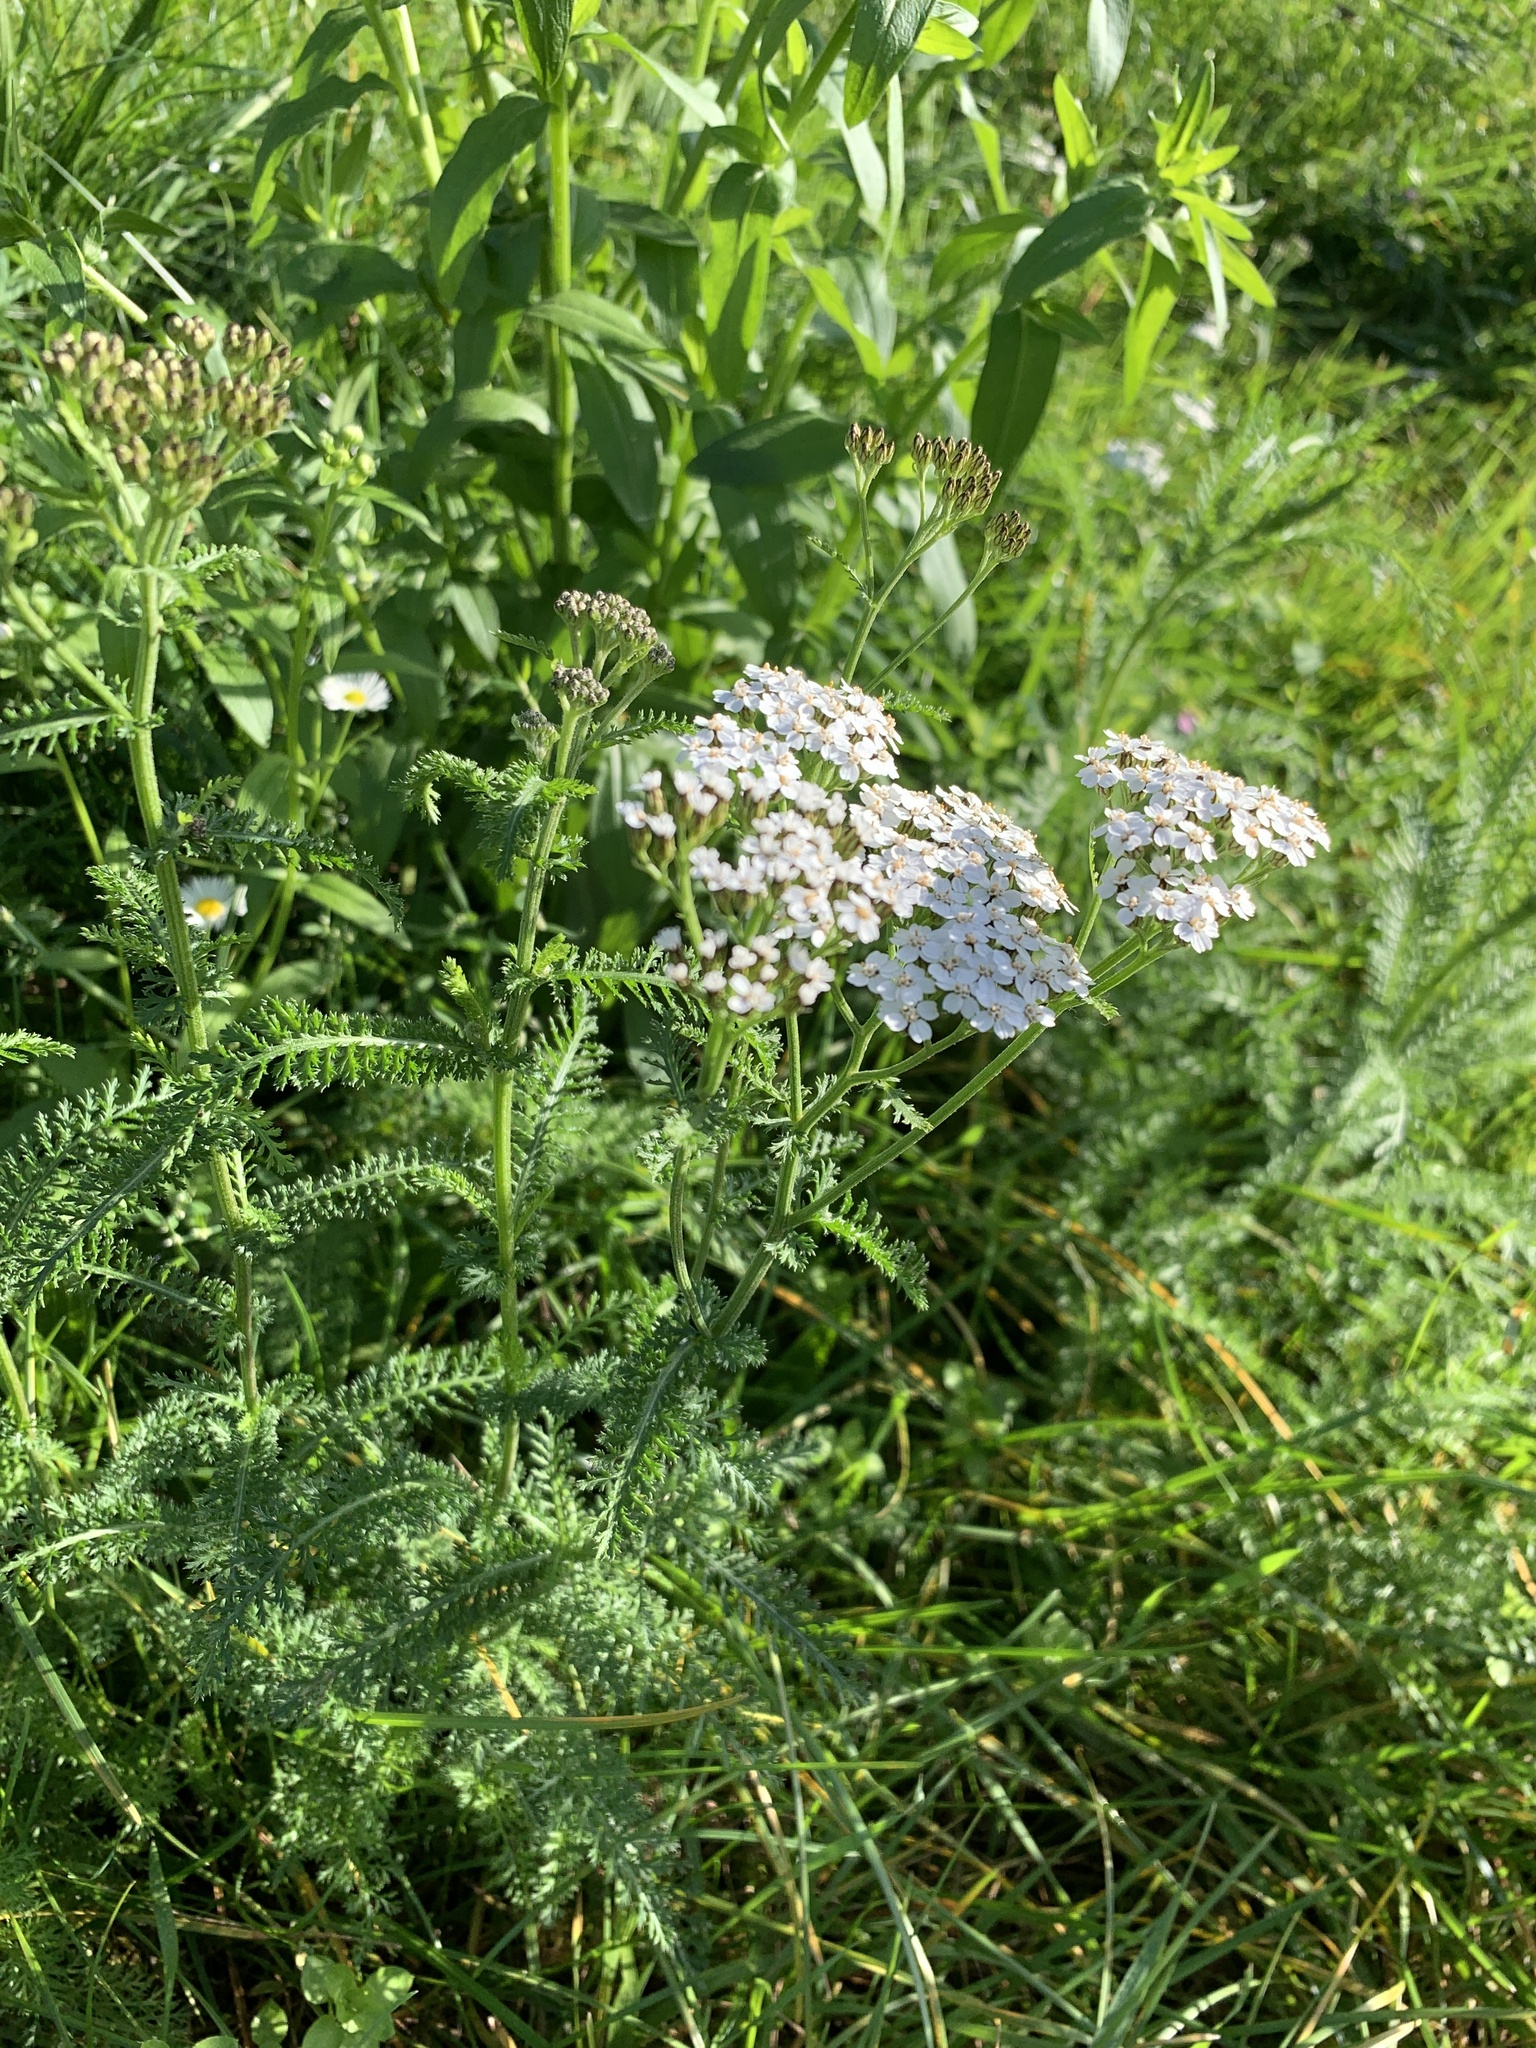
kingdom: Plantae
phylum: Tracheophyta
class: Magnoliopsida
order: Asterales
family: Asteraceae
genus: Achillea
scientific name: Achillea millefolium
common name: Yarrow
